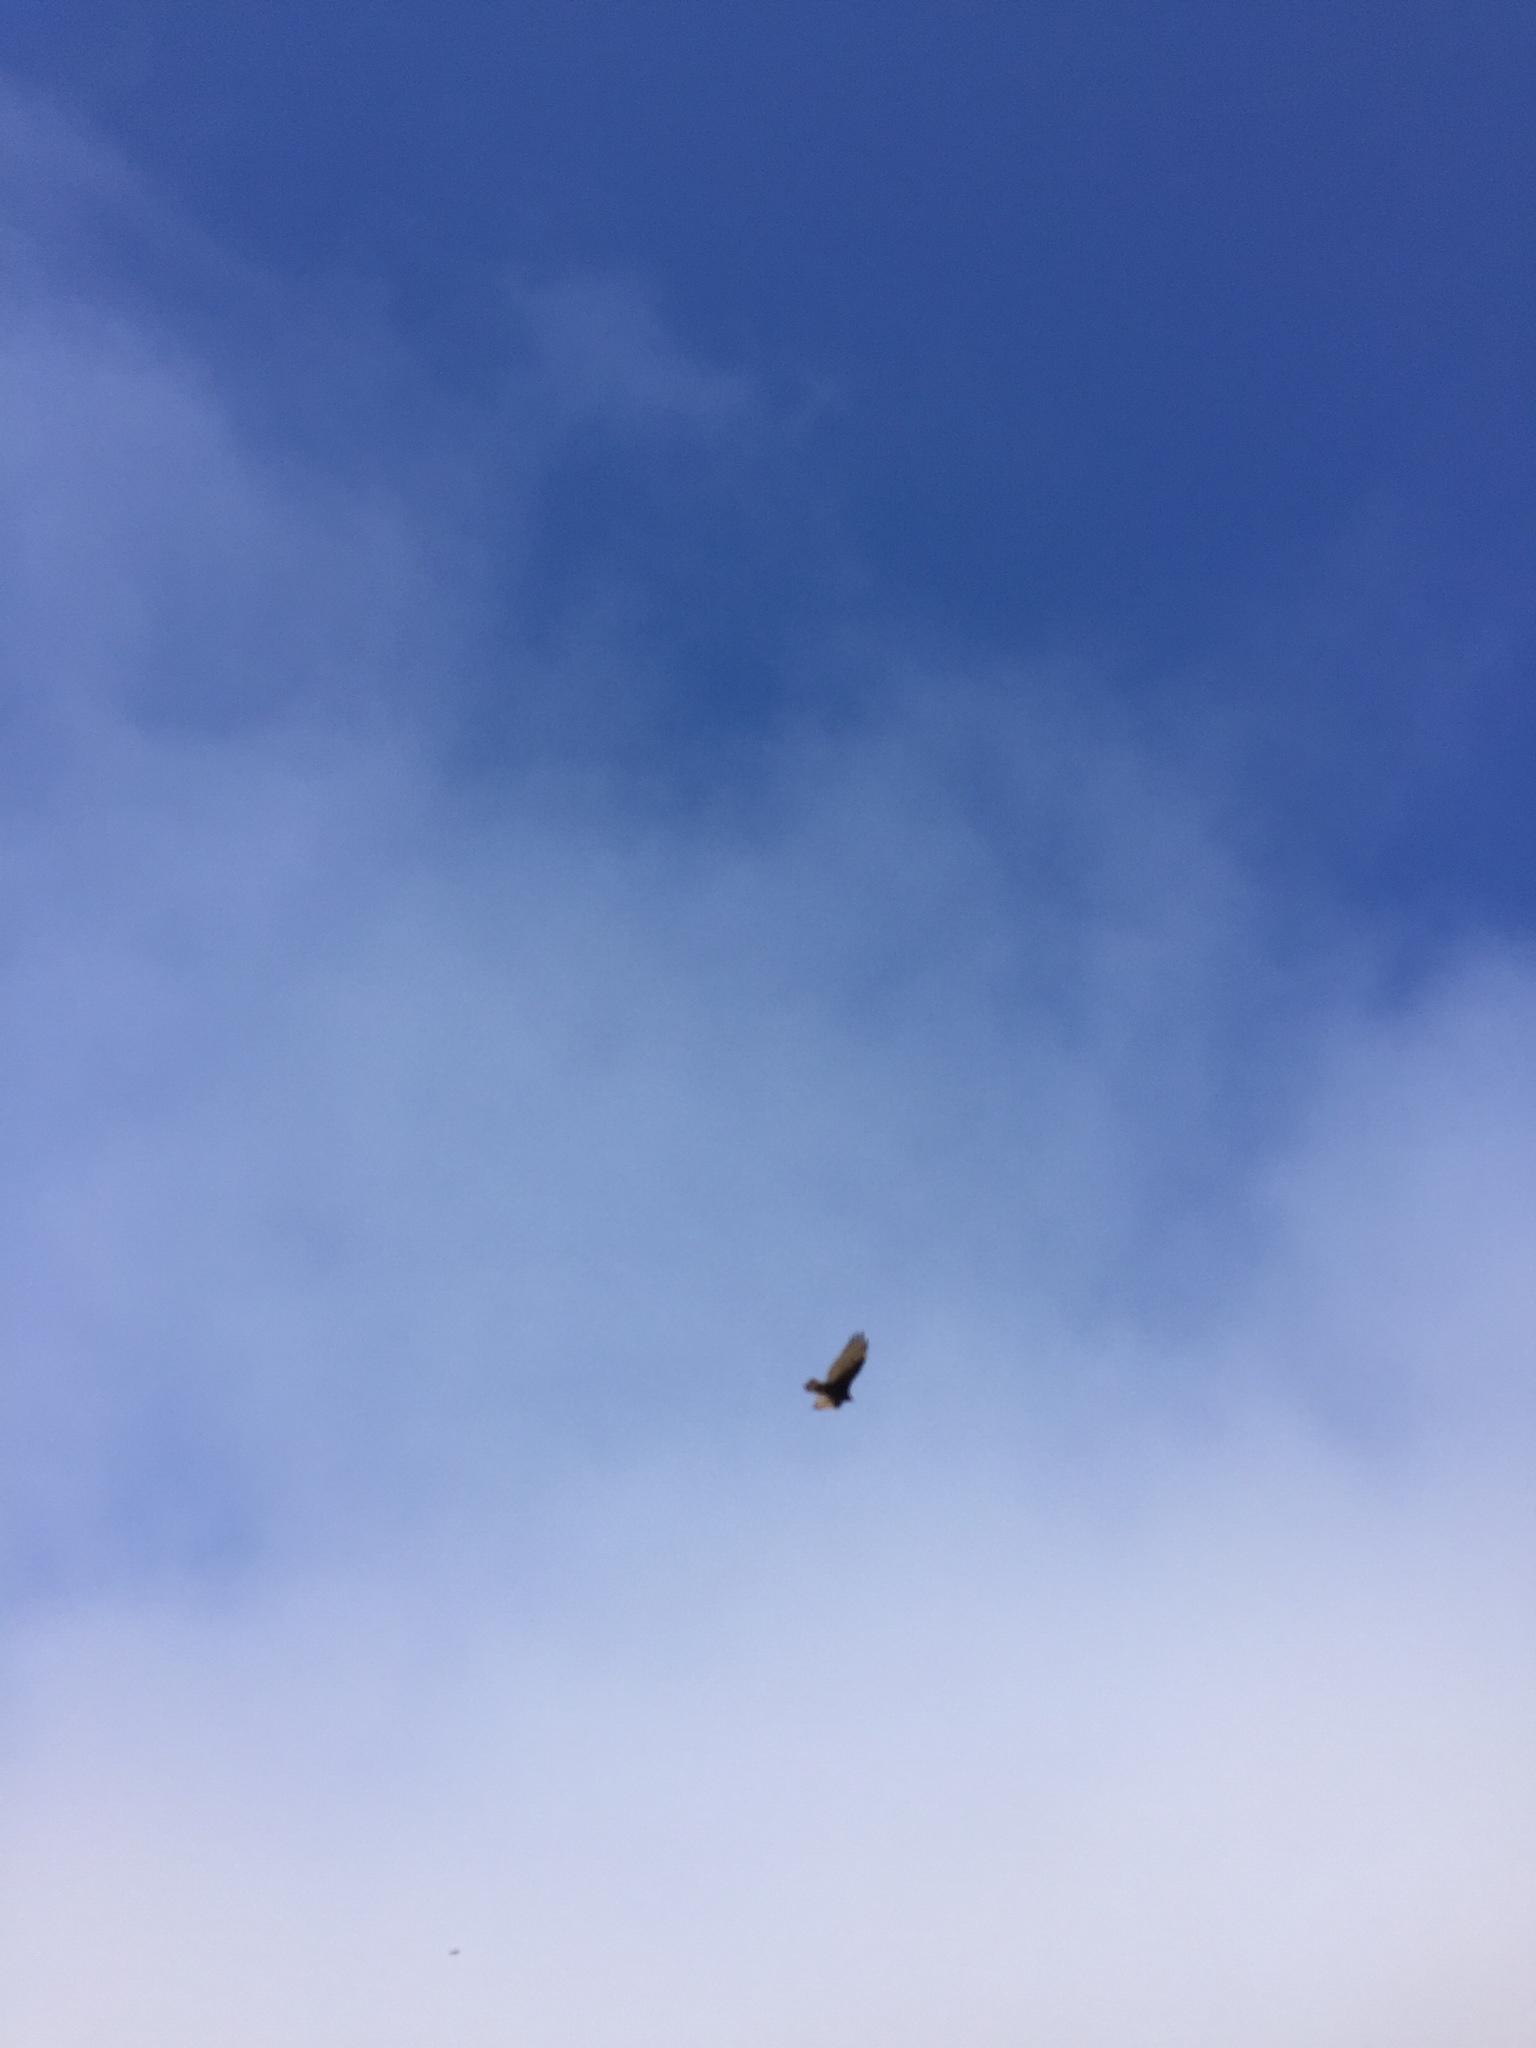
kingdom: Animalia
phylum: Chordata
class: Aves
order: Accipitriformes
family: Cathartidae
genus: Cathartes
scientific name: Cathartes aura
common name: Turkey vulture
